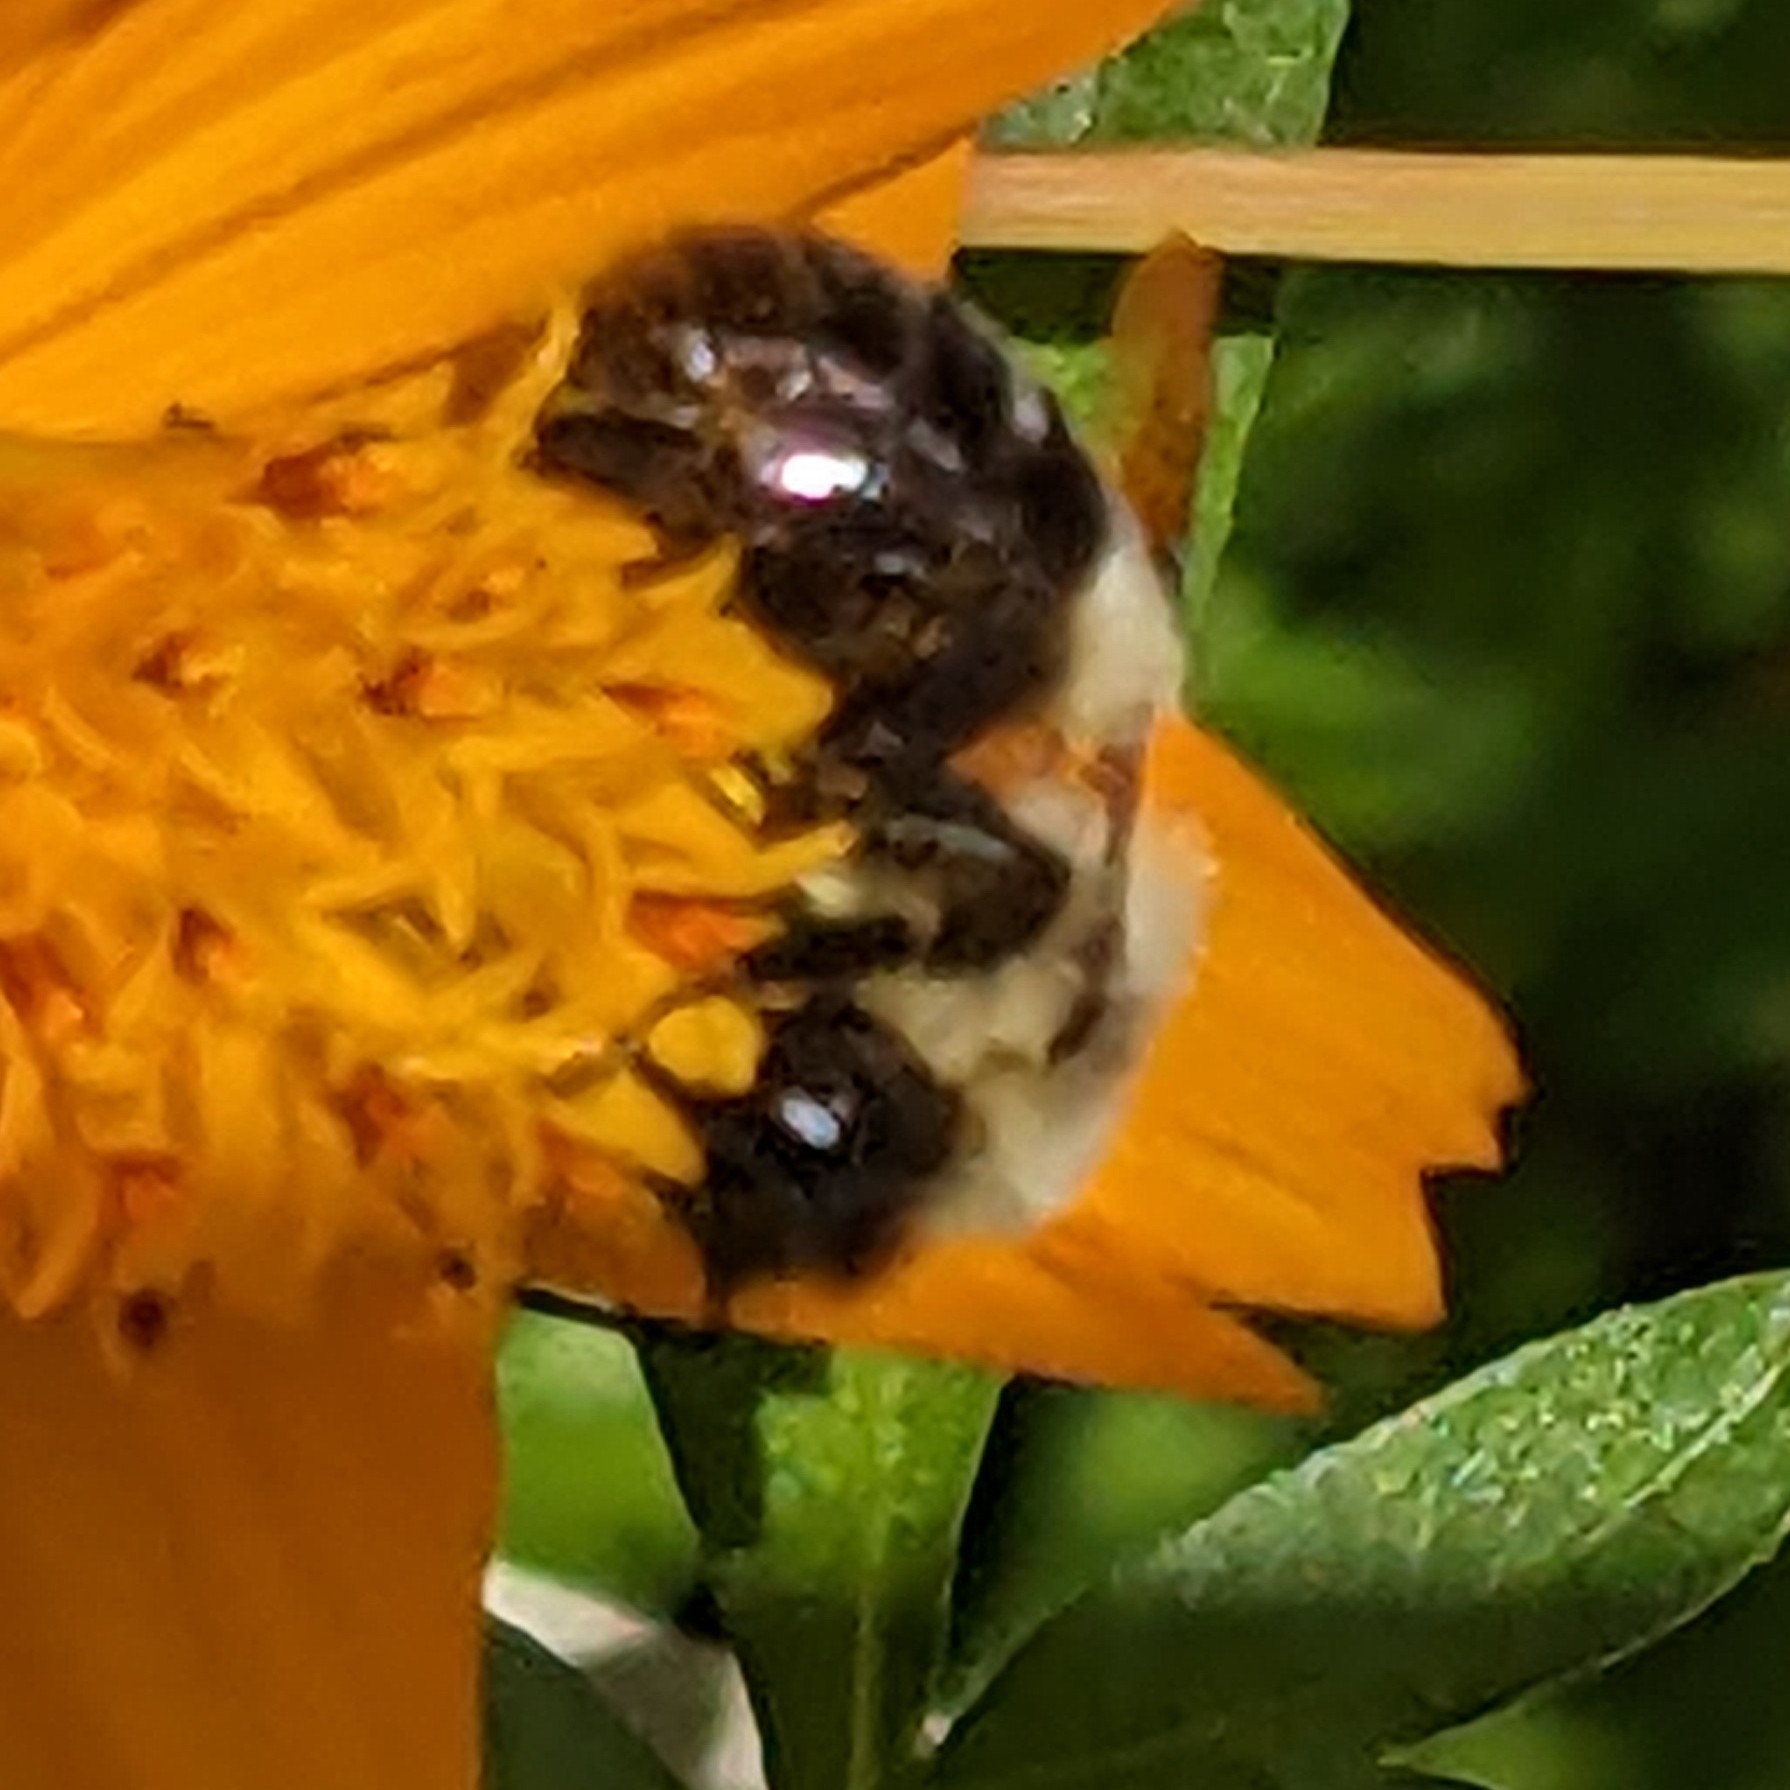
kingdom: Animalia
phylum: Arthropoda
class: Insecta
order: Hymenoptera
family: Apidae
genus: Bombus
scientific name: Bombus impatiens
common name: Common eastern bumble bee
